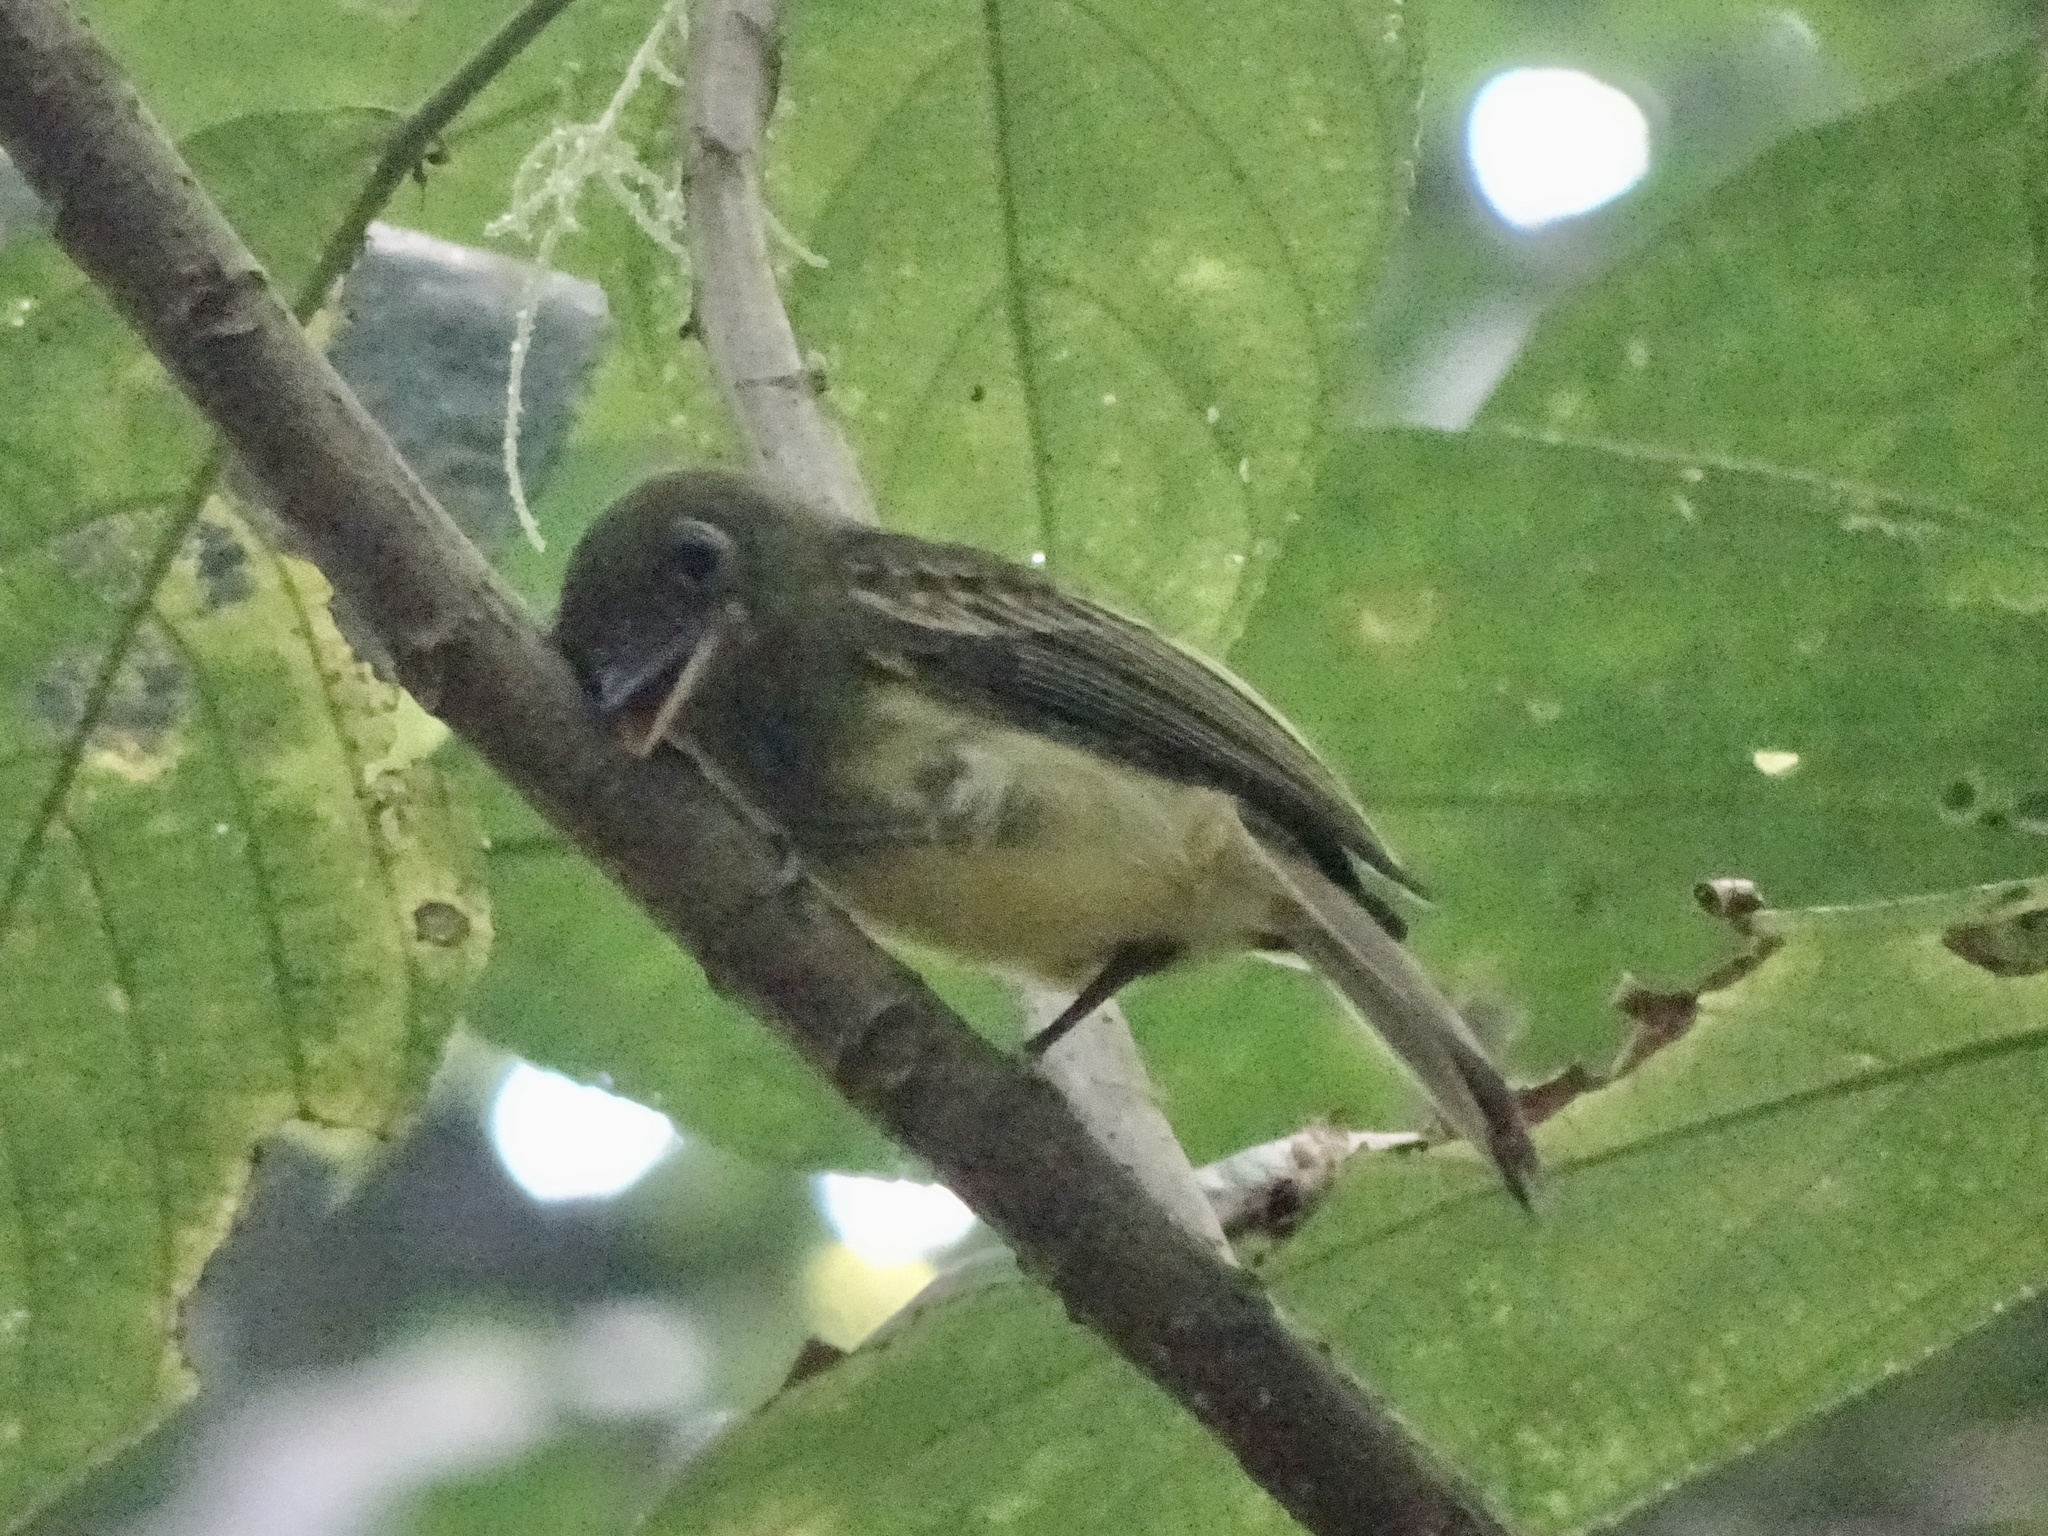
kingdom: Animalia
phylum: Chordata
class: Aves
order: Passeriformes
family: Tyrannidae
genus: Rhynchocyclus
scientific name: Rhynchocyclus olivaceus
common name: Olivaceous flatbill
